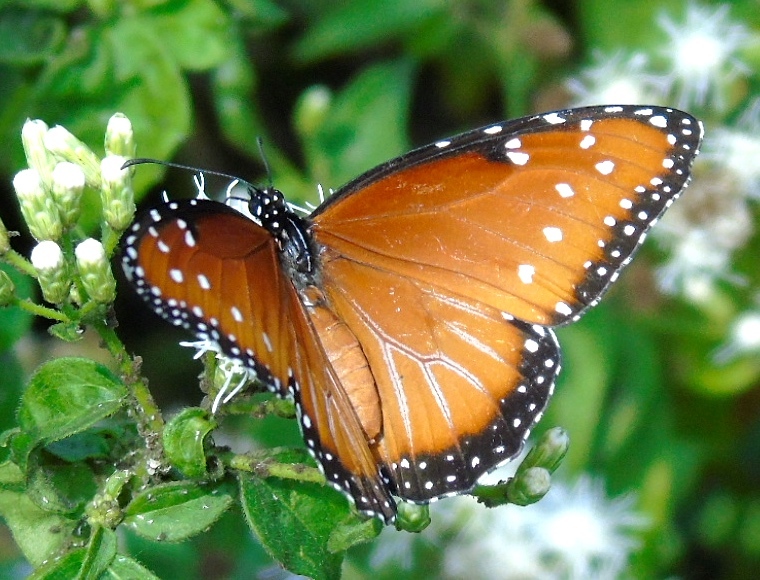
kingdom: Animalia
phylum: Arthropoda
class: Insecta
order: Lepidoptera
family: Nymphalidae
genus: Danaus
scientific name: Danaus gilippus
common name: Queen
